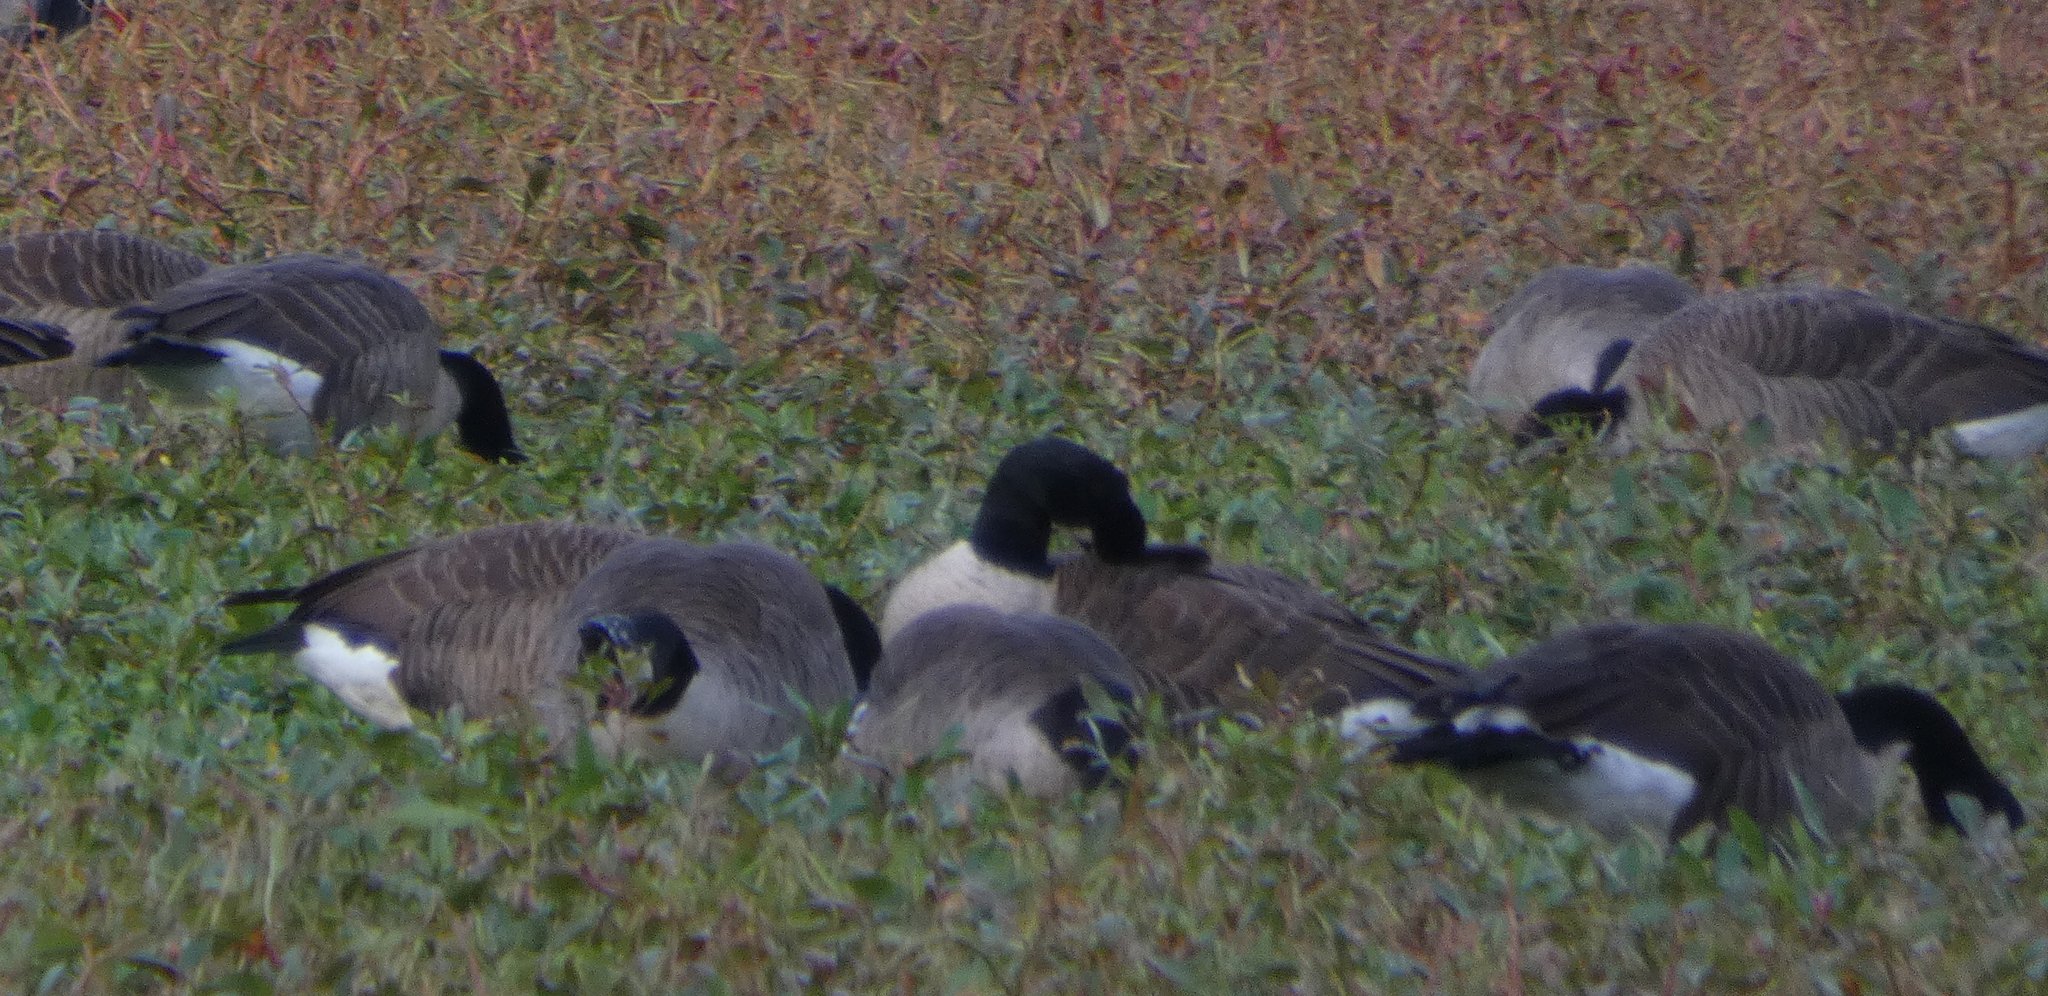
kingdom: Animalia
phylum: Chordata
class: Aves
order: Anseriformes
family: Anatidae
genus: Branta
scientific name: Branta canadensis
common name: Canada goose
